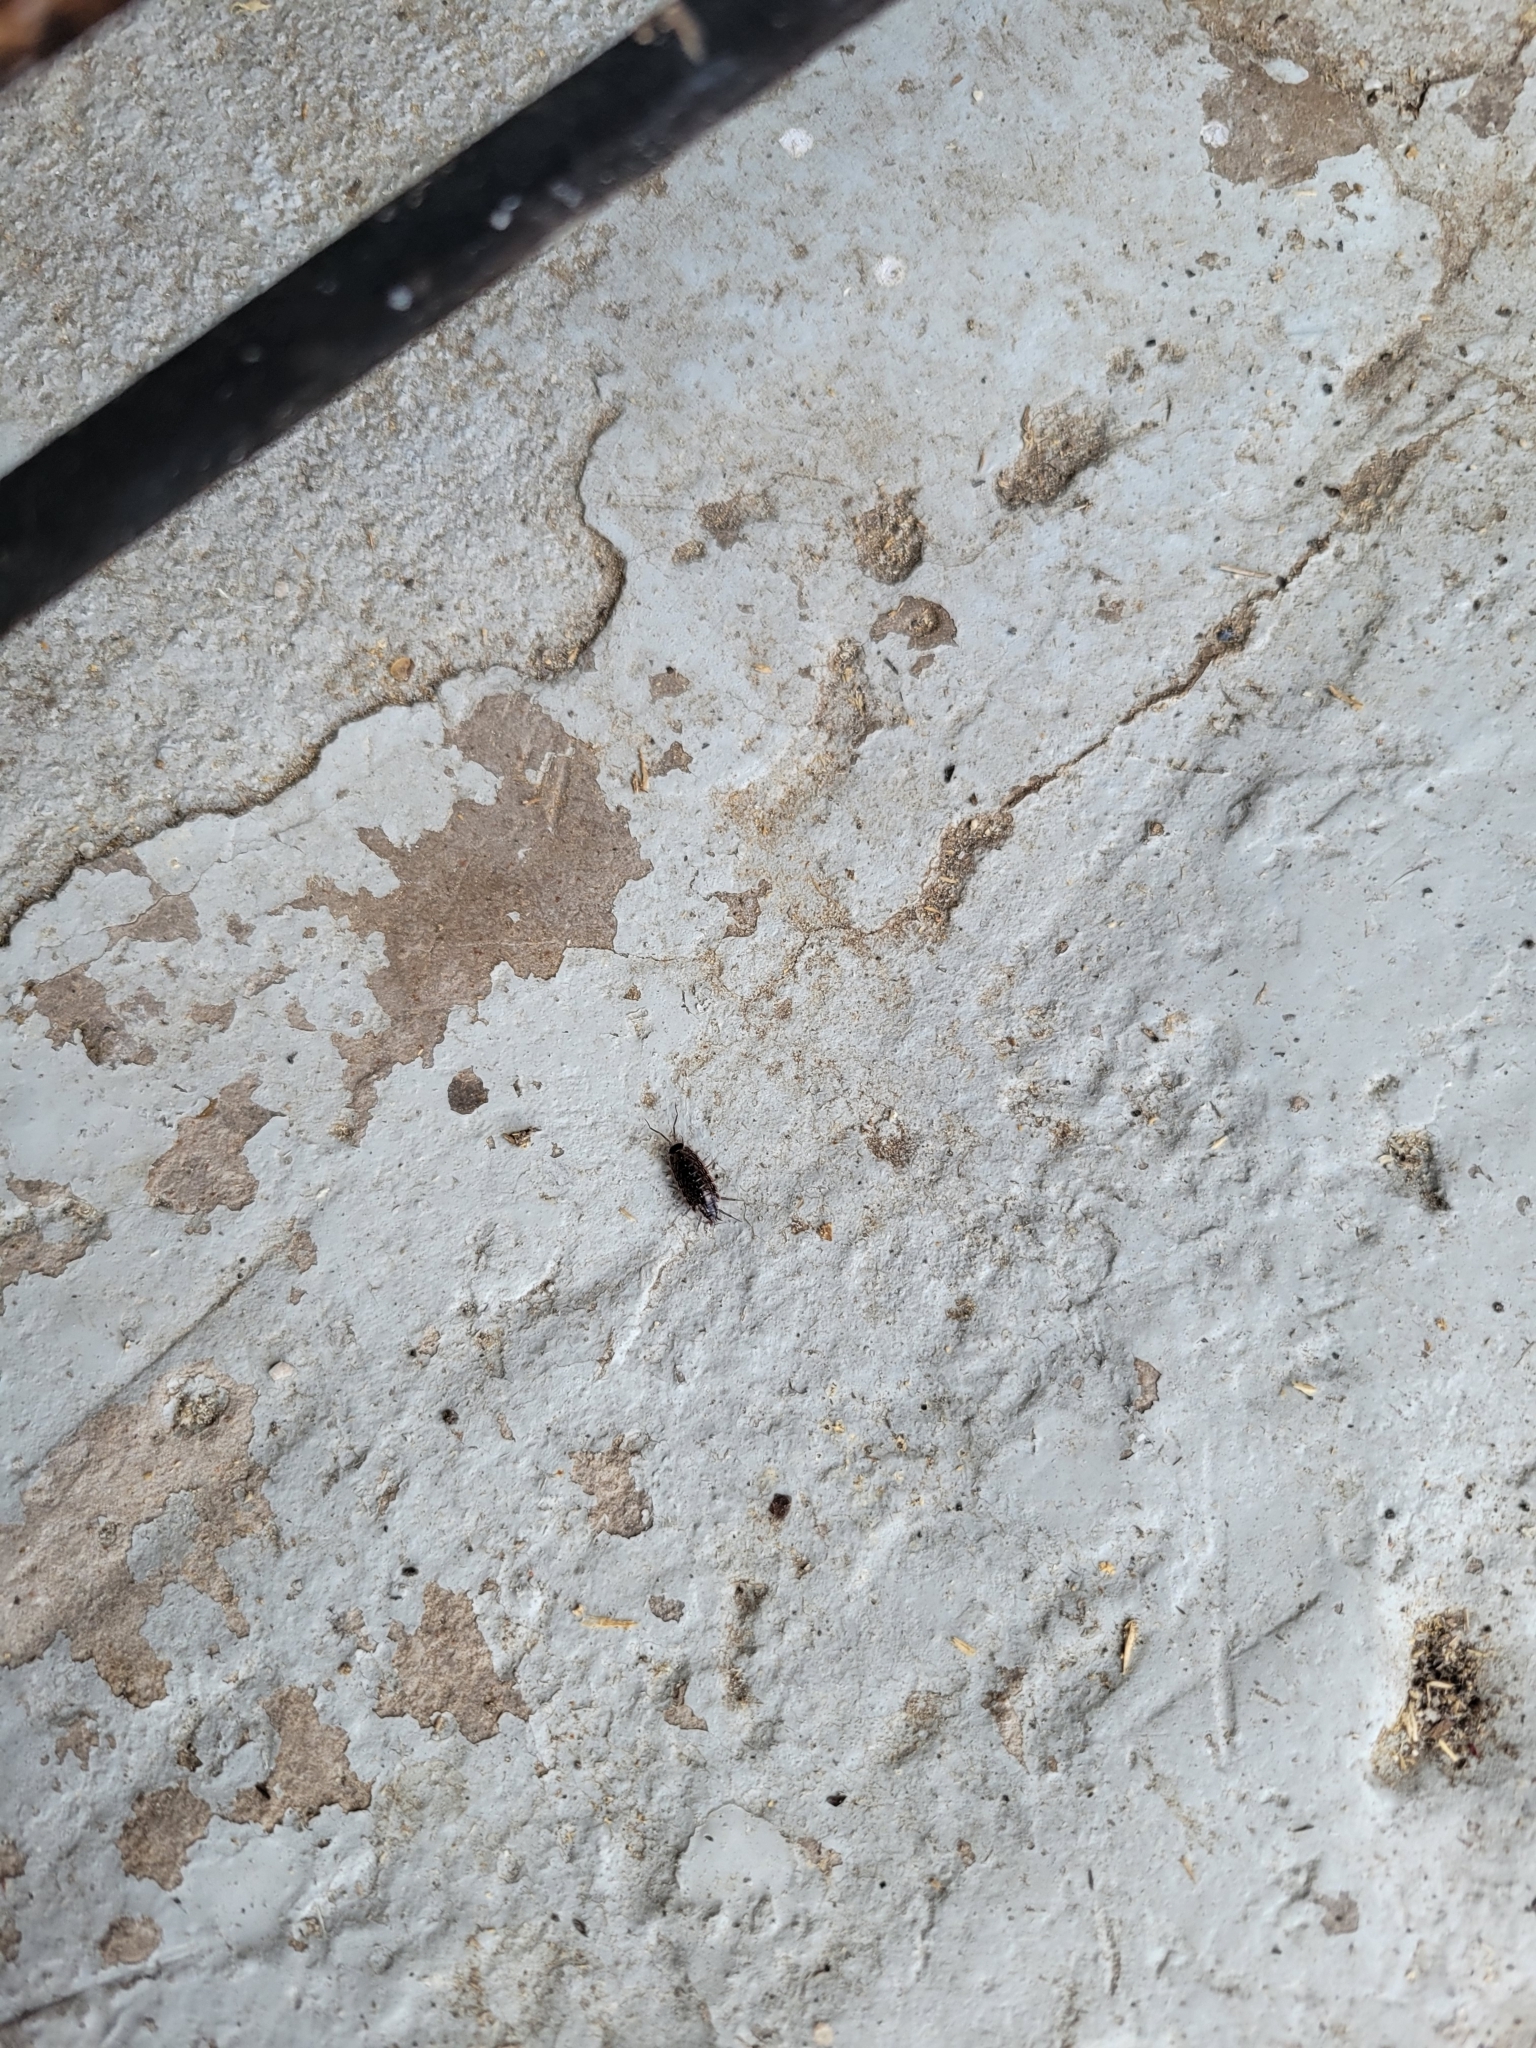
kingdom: Animalia
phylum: Arthropoda
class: Malacostraca
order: Isopoda
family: Philosciidae
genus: Philoscia
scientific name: Philoscia muscorum
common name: Common striped woodlouse
